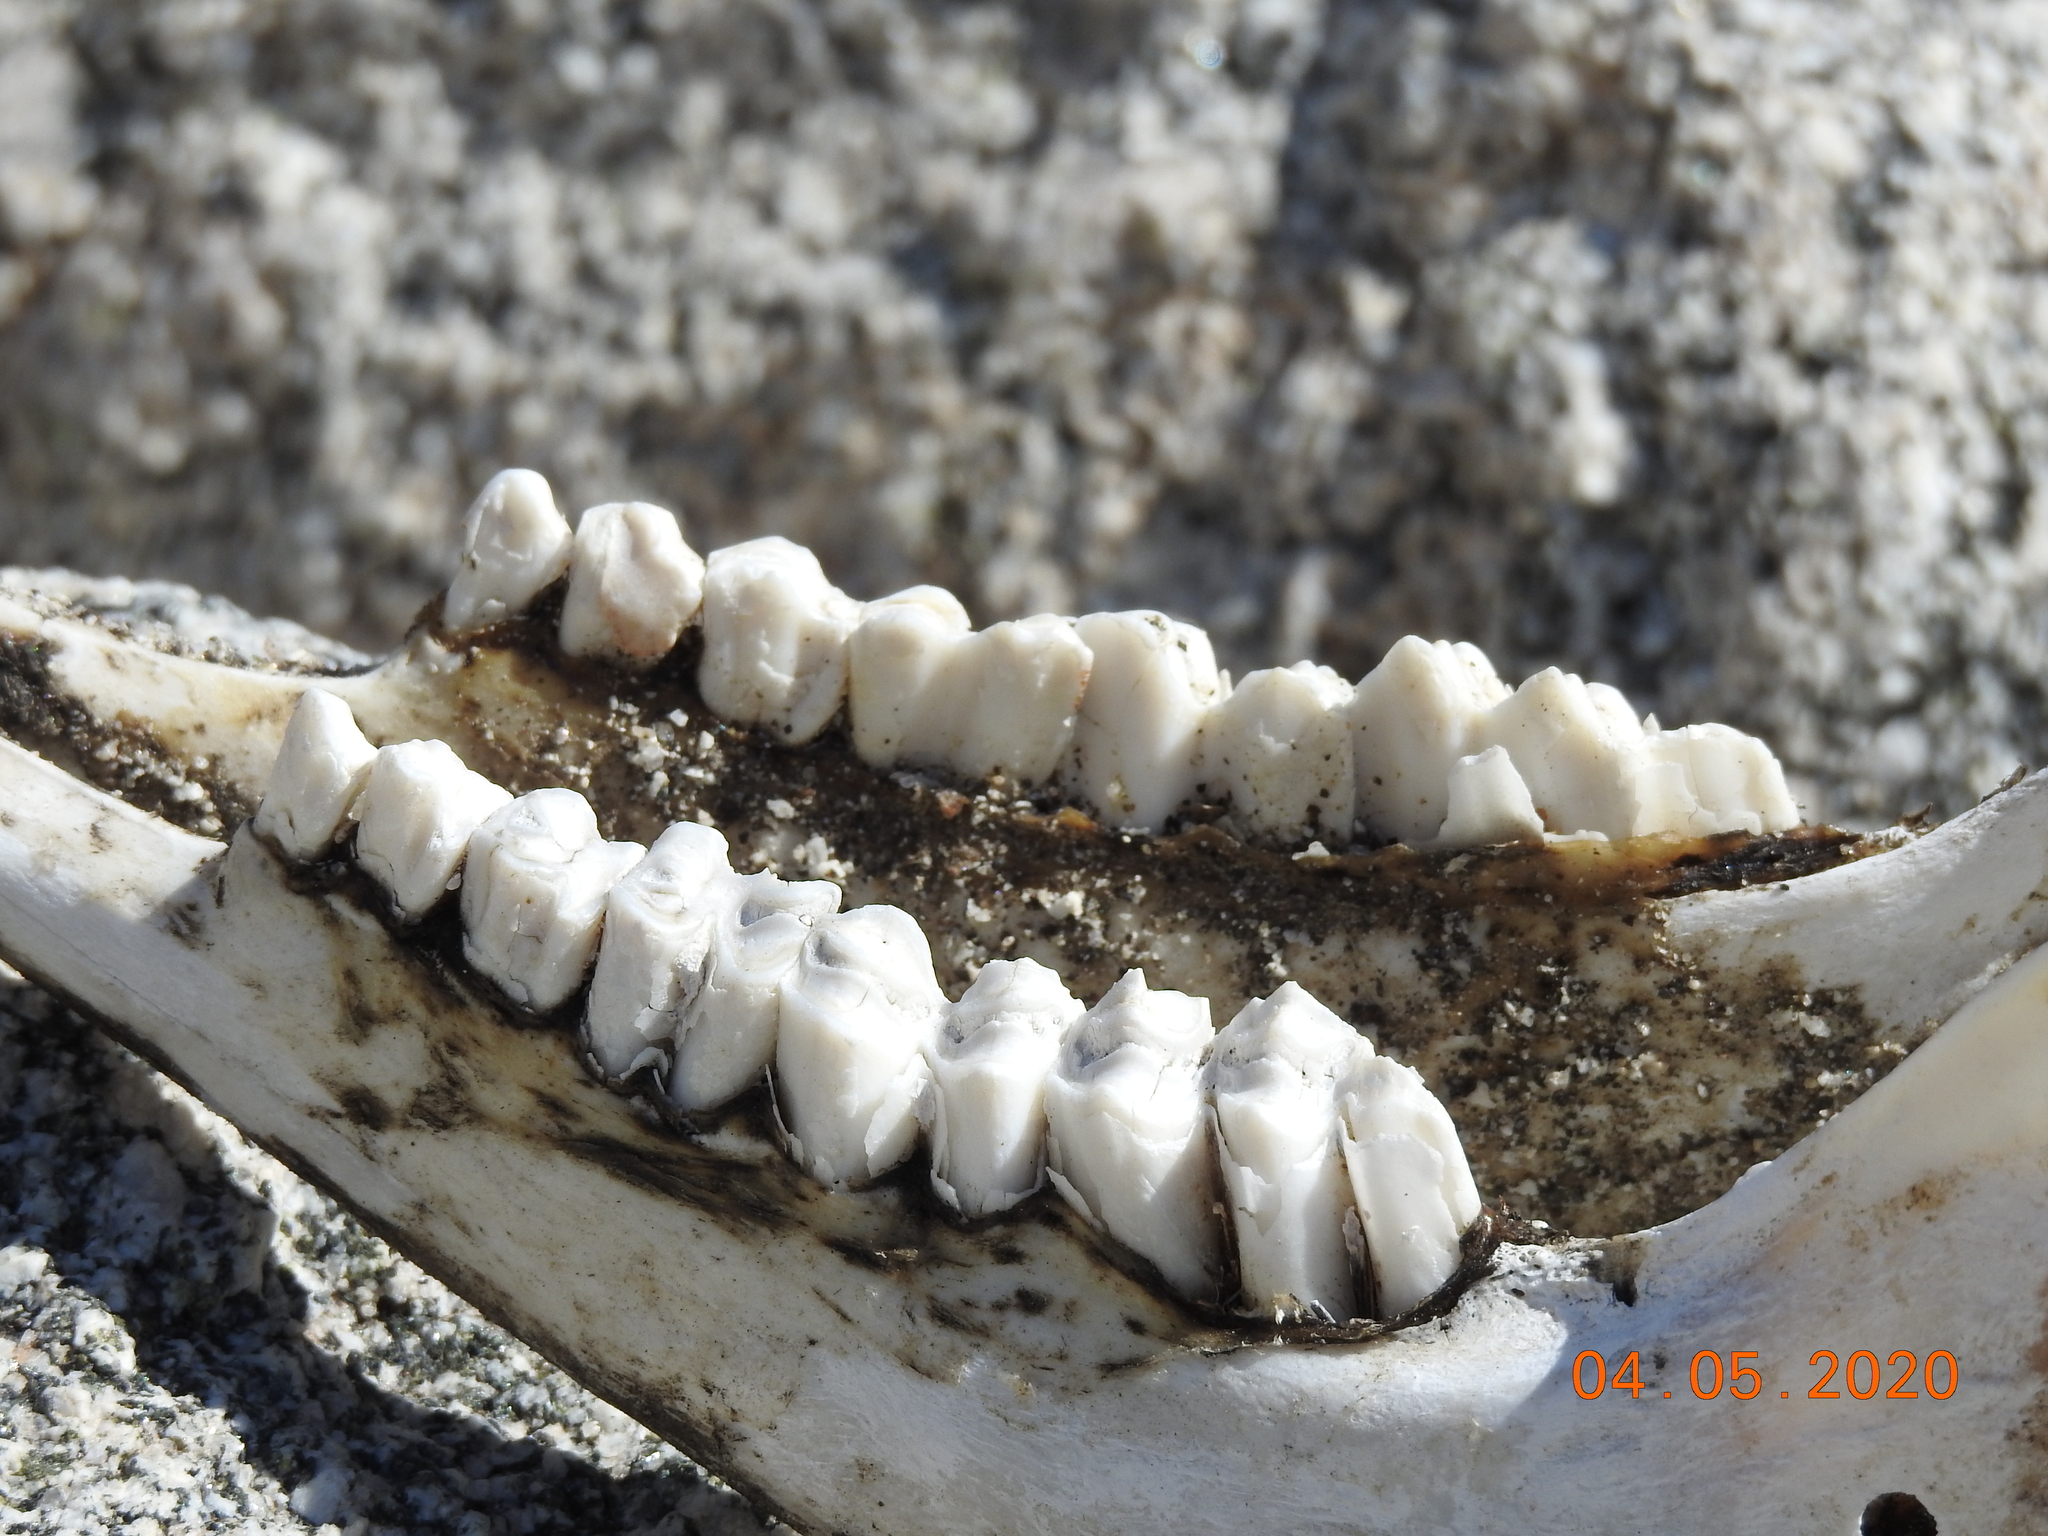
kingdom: Animalia
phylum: Chordata
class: Mammalia
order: Artiodactyla
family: Bovidae
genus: Ovis
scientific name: Ovis canadensis
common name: Bighorn sheep
